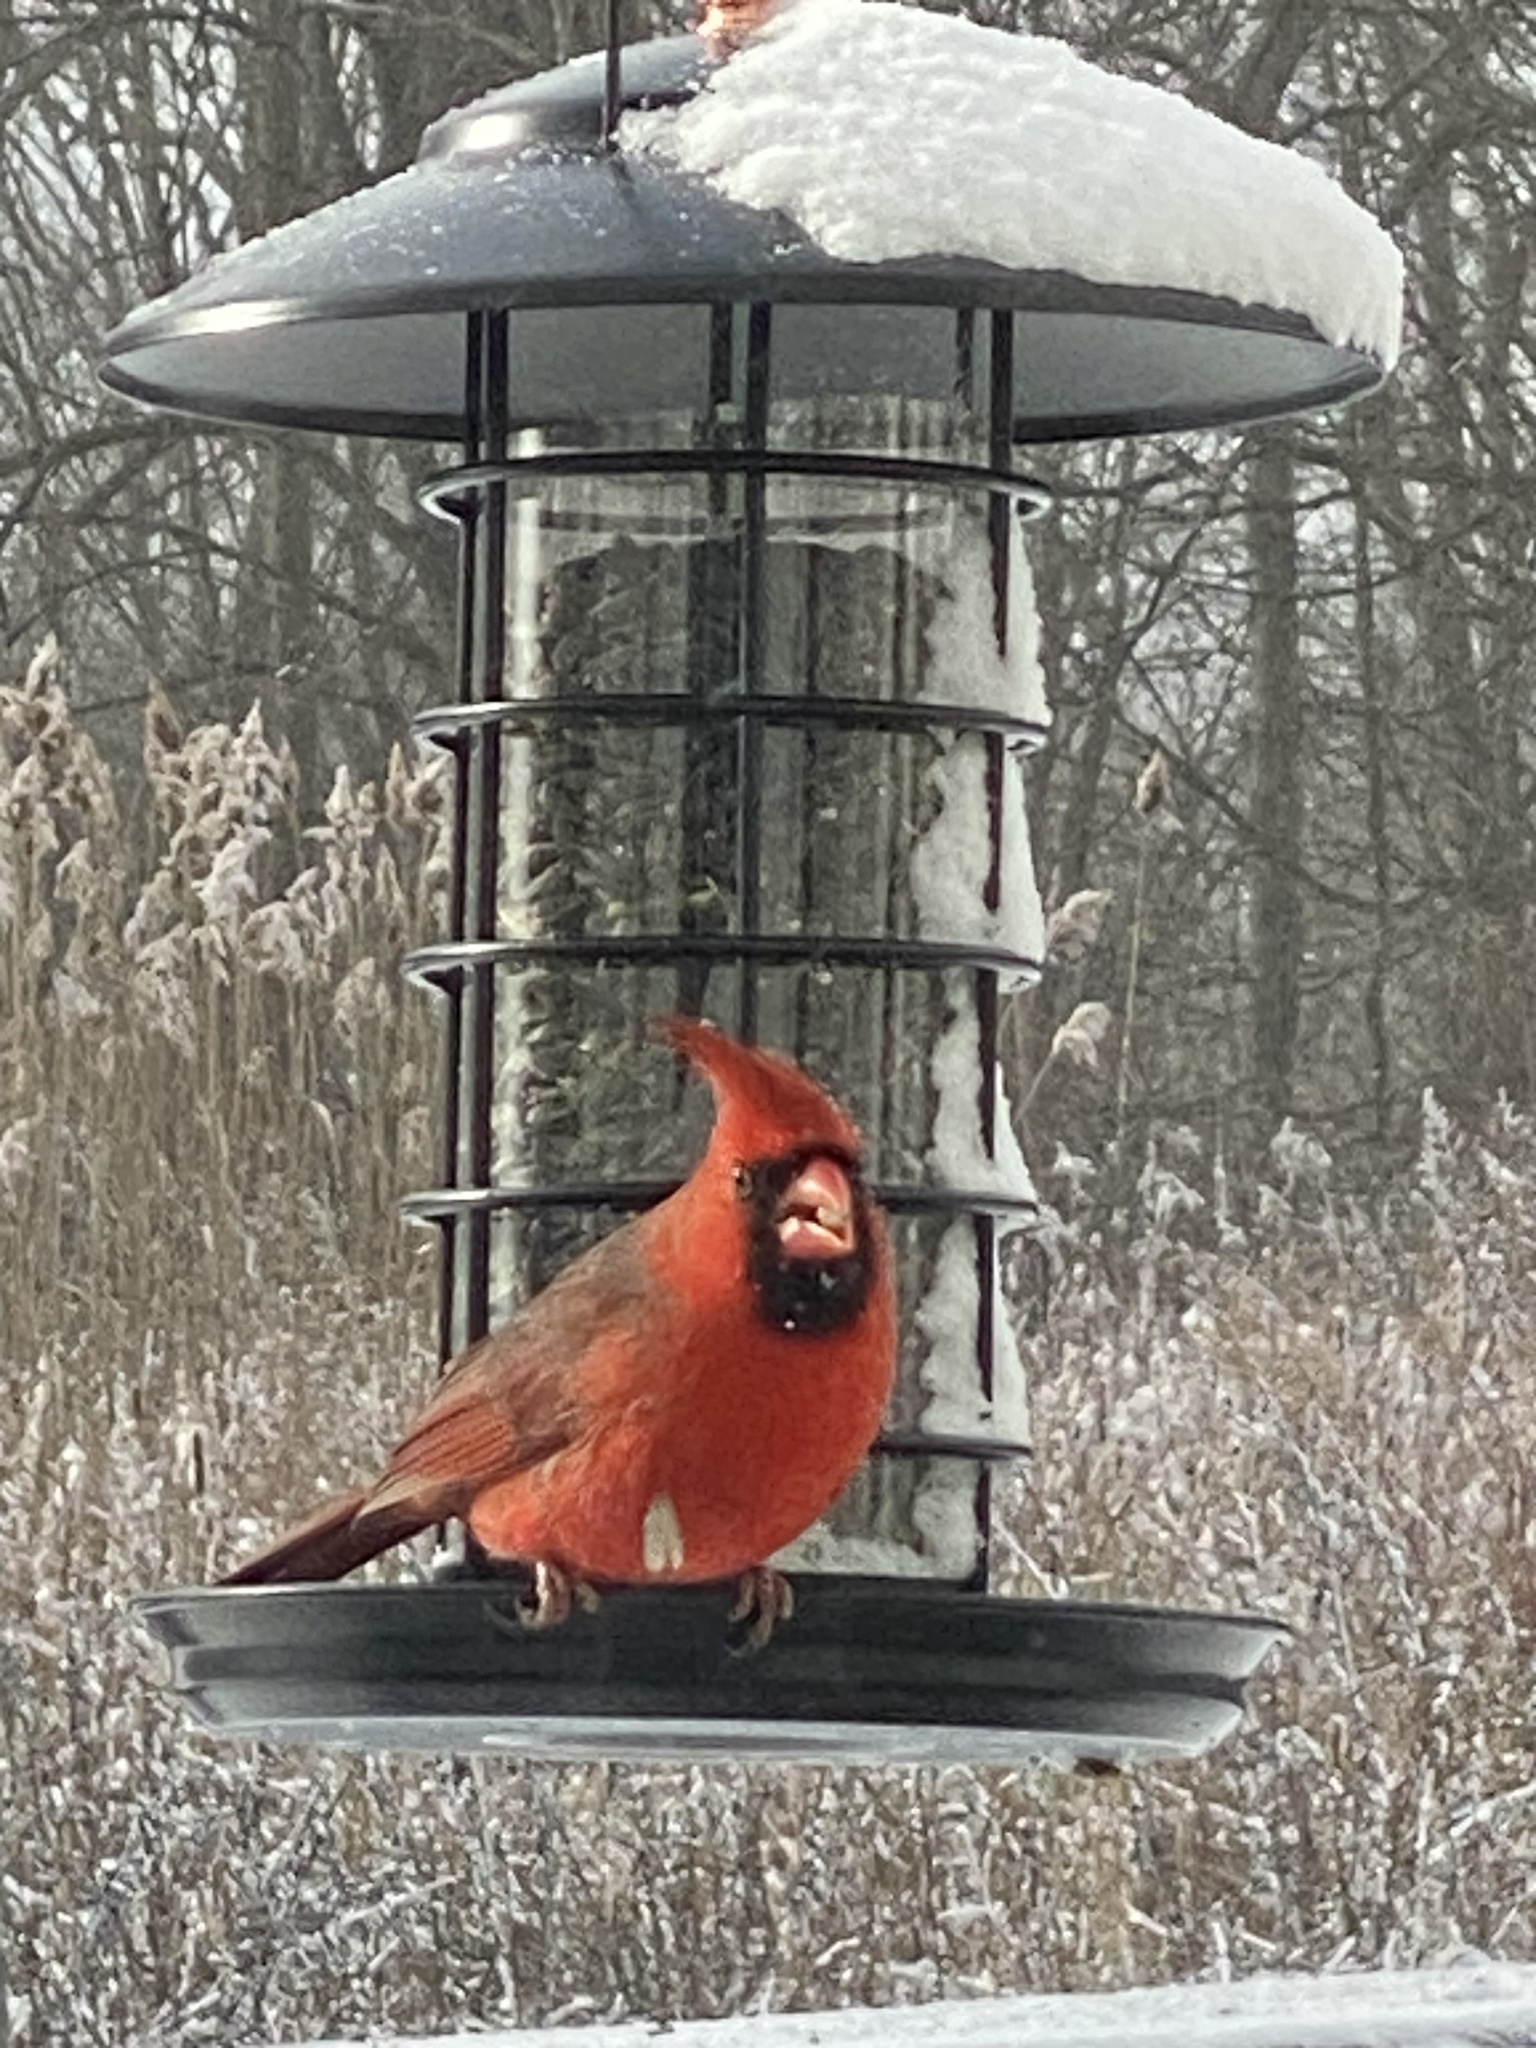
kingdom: Animalia
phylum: Chordata
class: Aves
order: Passeriformes
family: Cardinalidae
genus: Cardinalis
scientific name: Cardinalis cardinalis
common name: Northern cardinal
